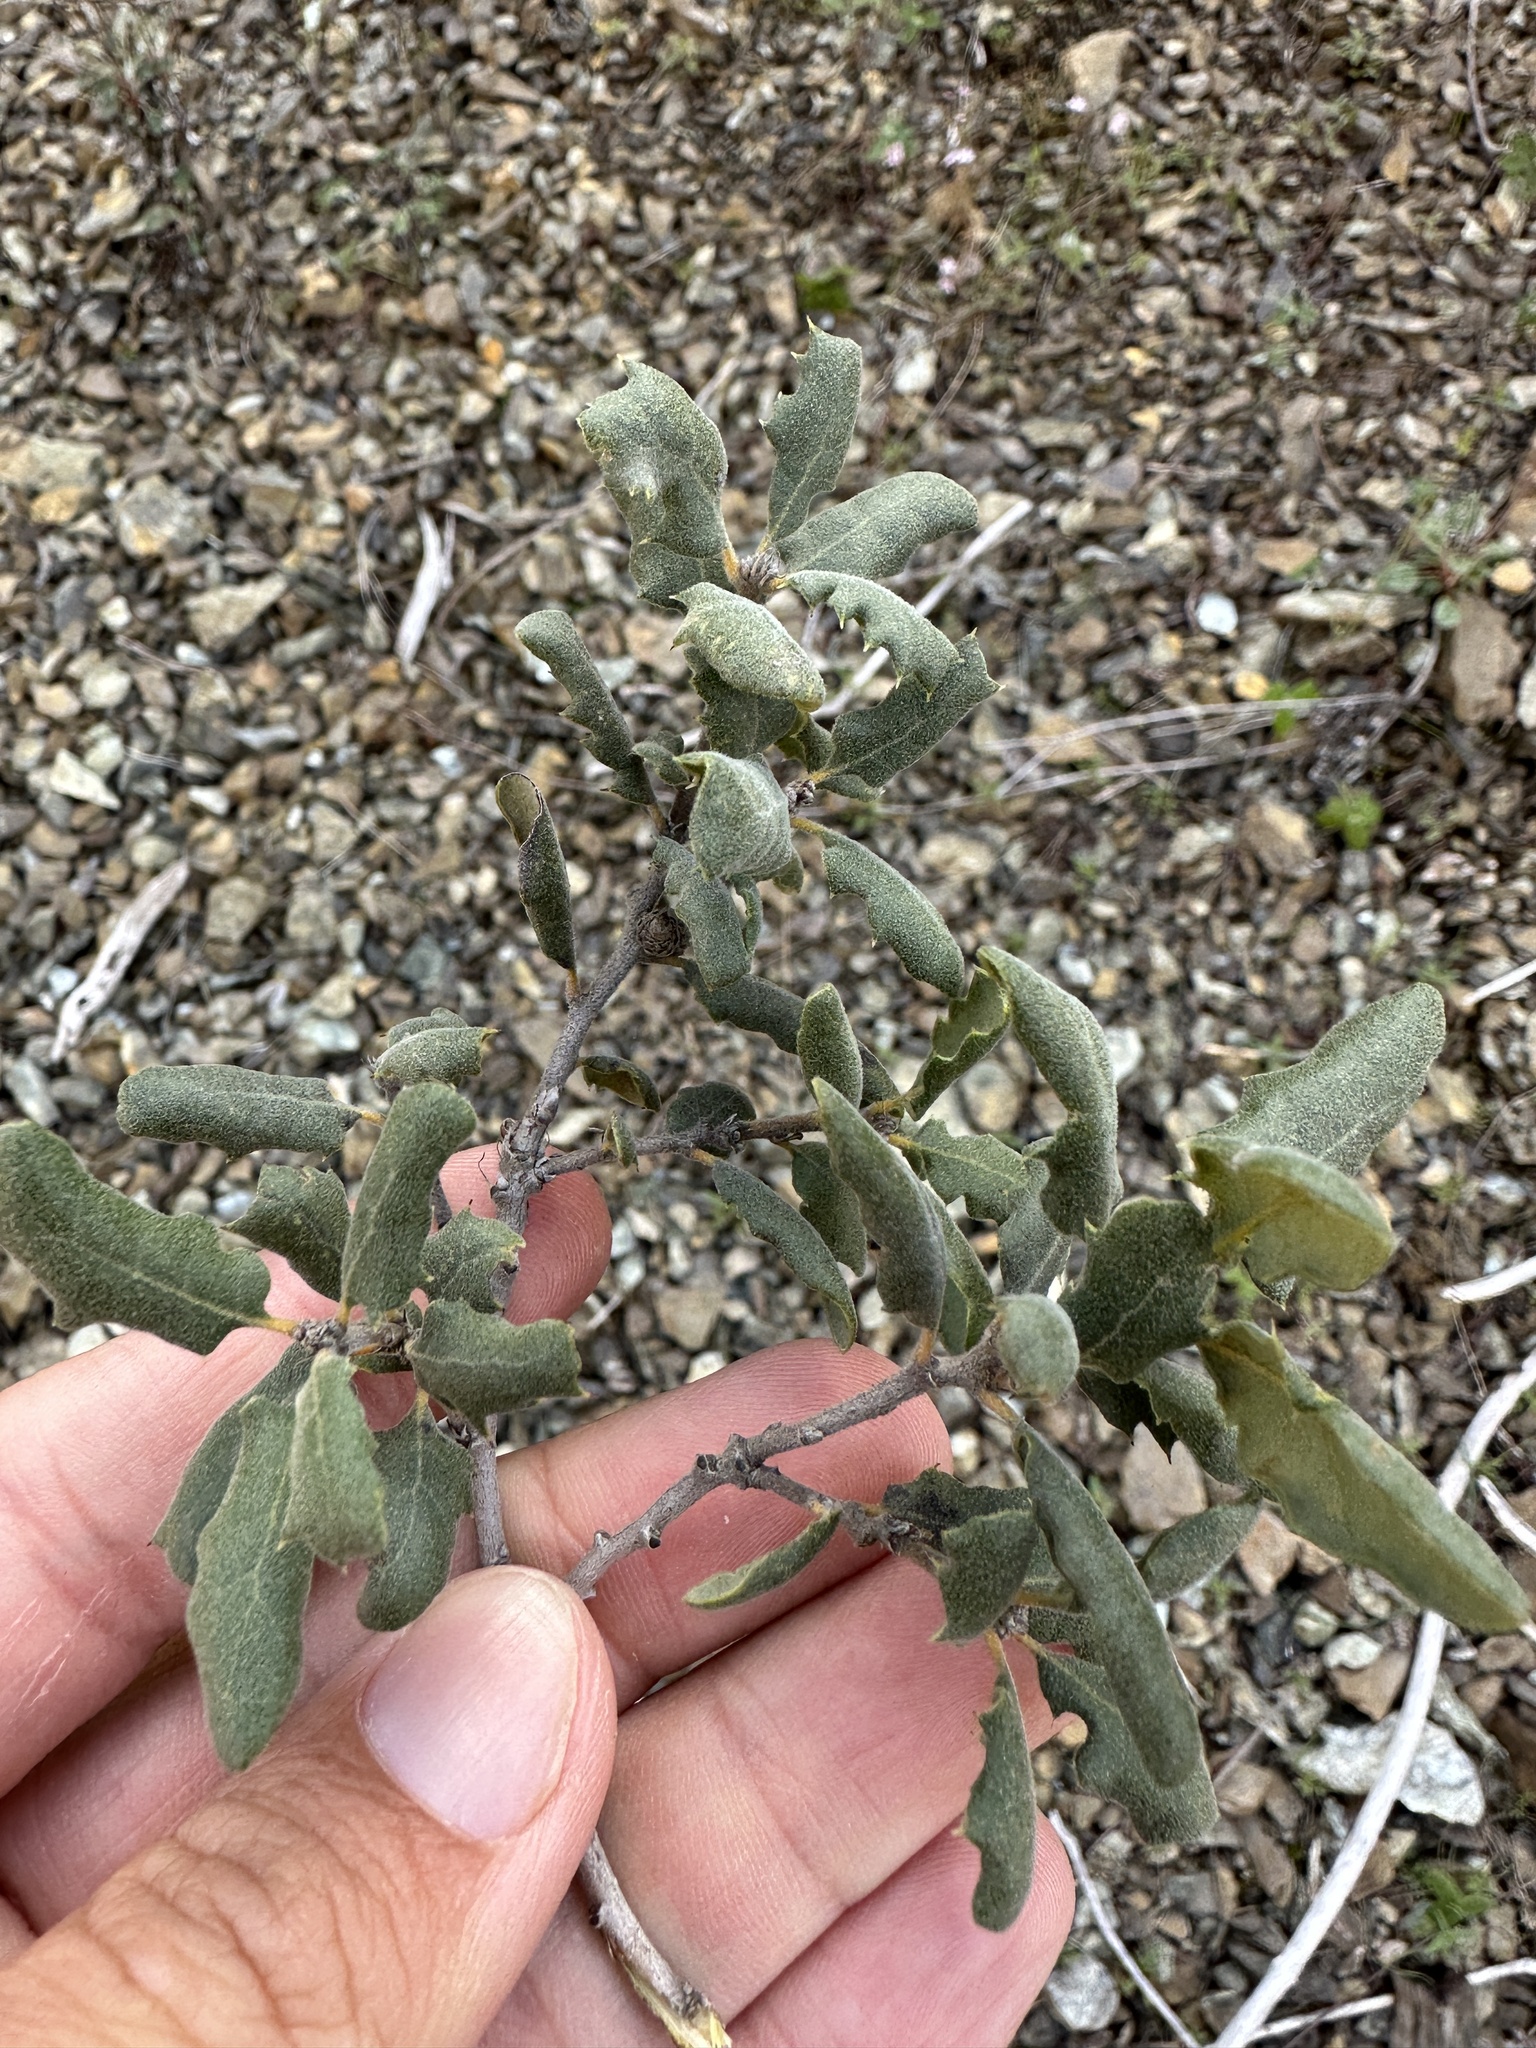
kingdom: Plantae
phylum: Tracheophyta
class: Magnoliopsida
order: Fagales
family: Fagaceae
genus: Quercus
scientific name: Quercus durata
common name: Leather oak
